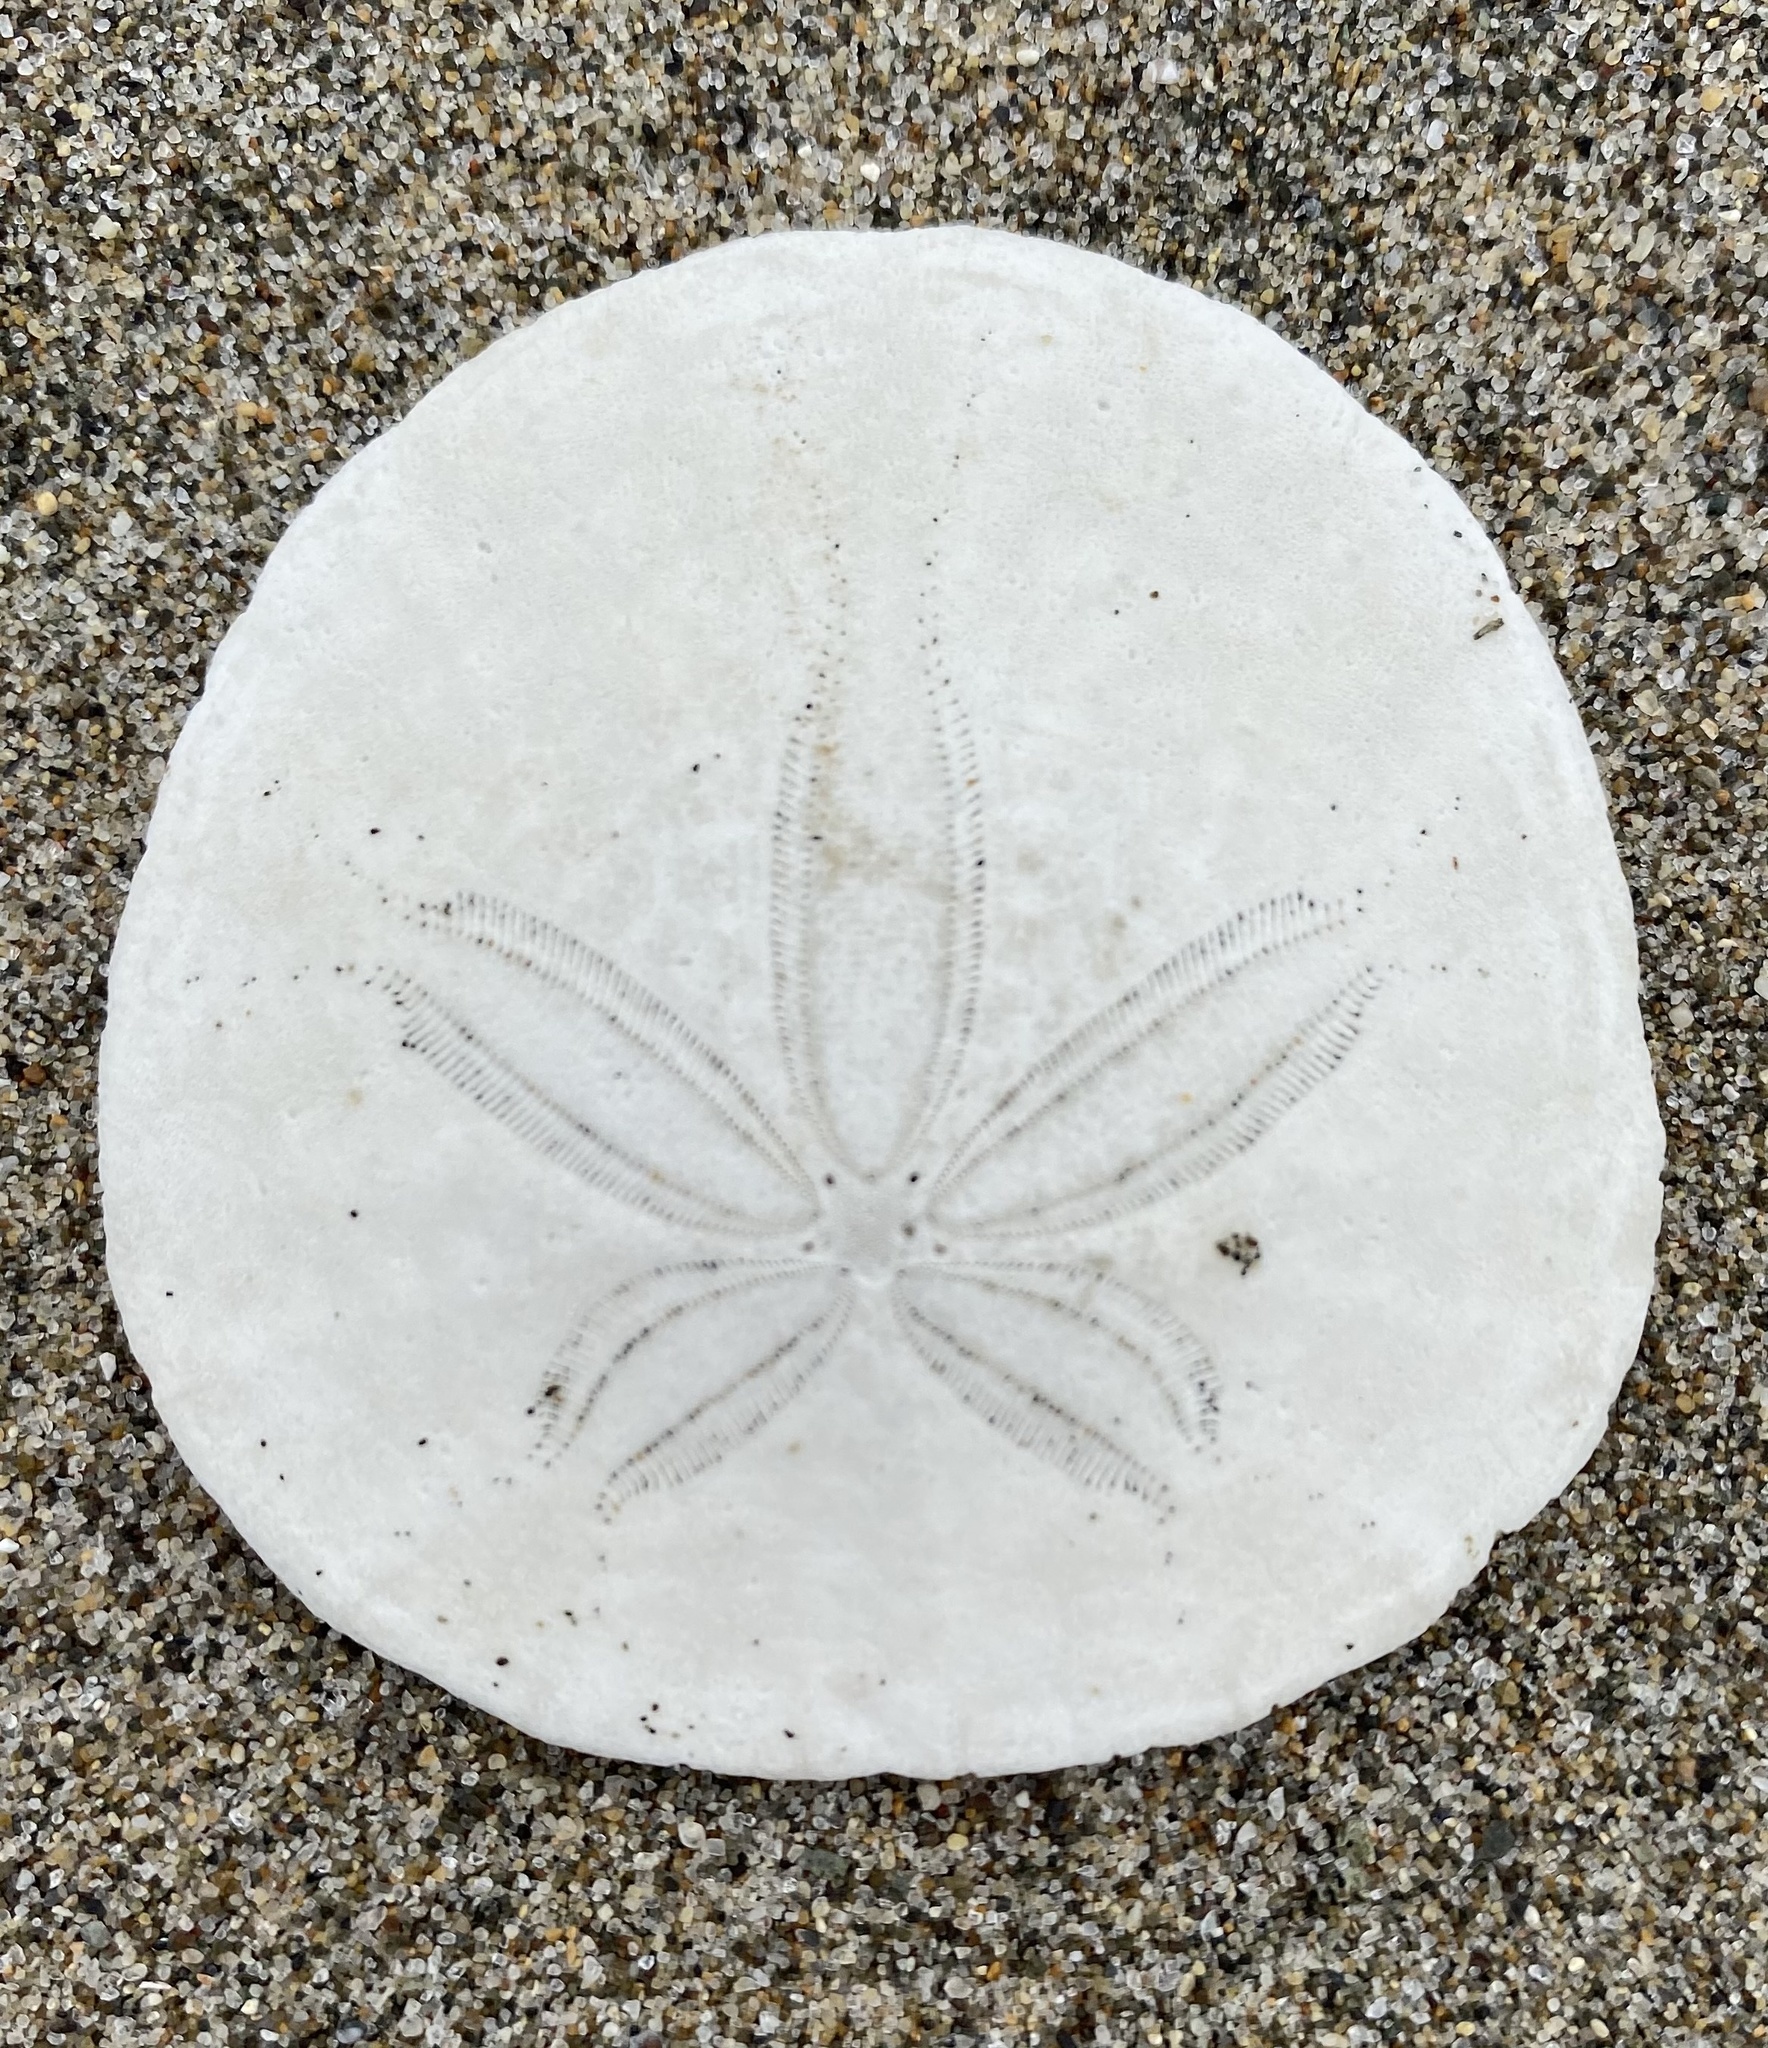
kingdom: Animalia
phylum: Echinodermata
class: Echinoidea
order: Echinolampadacea
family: Dendrasteridae
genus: Dendraster
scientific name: Dendraster excentricus
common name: Eccentric sand dollar sea urchin
